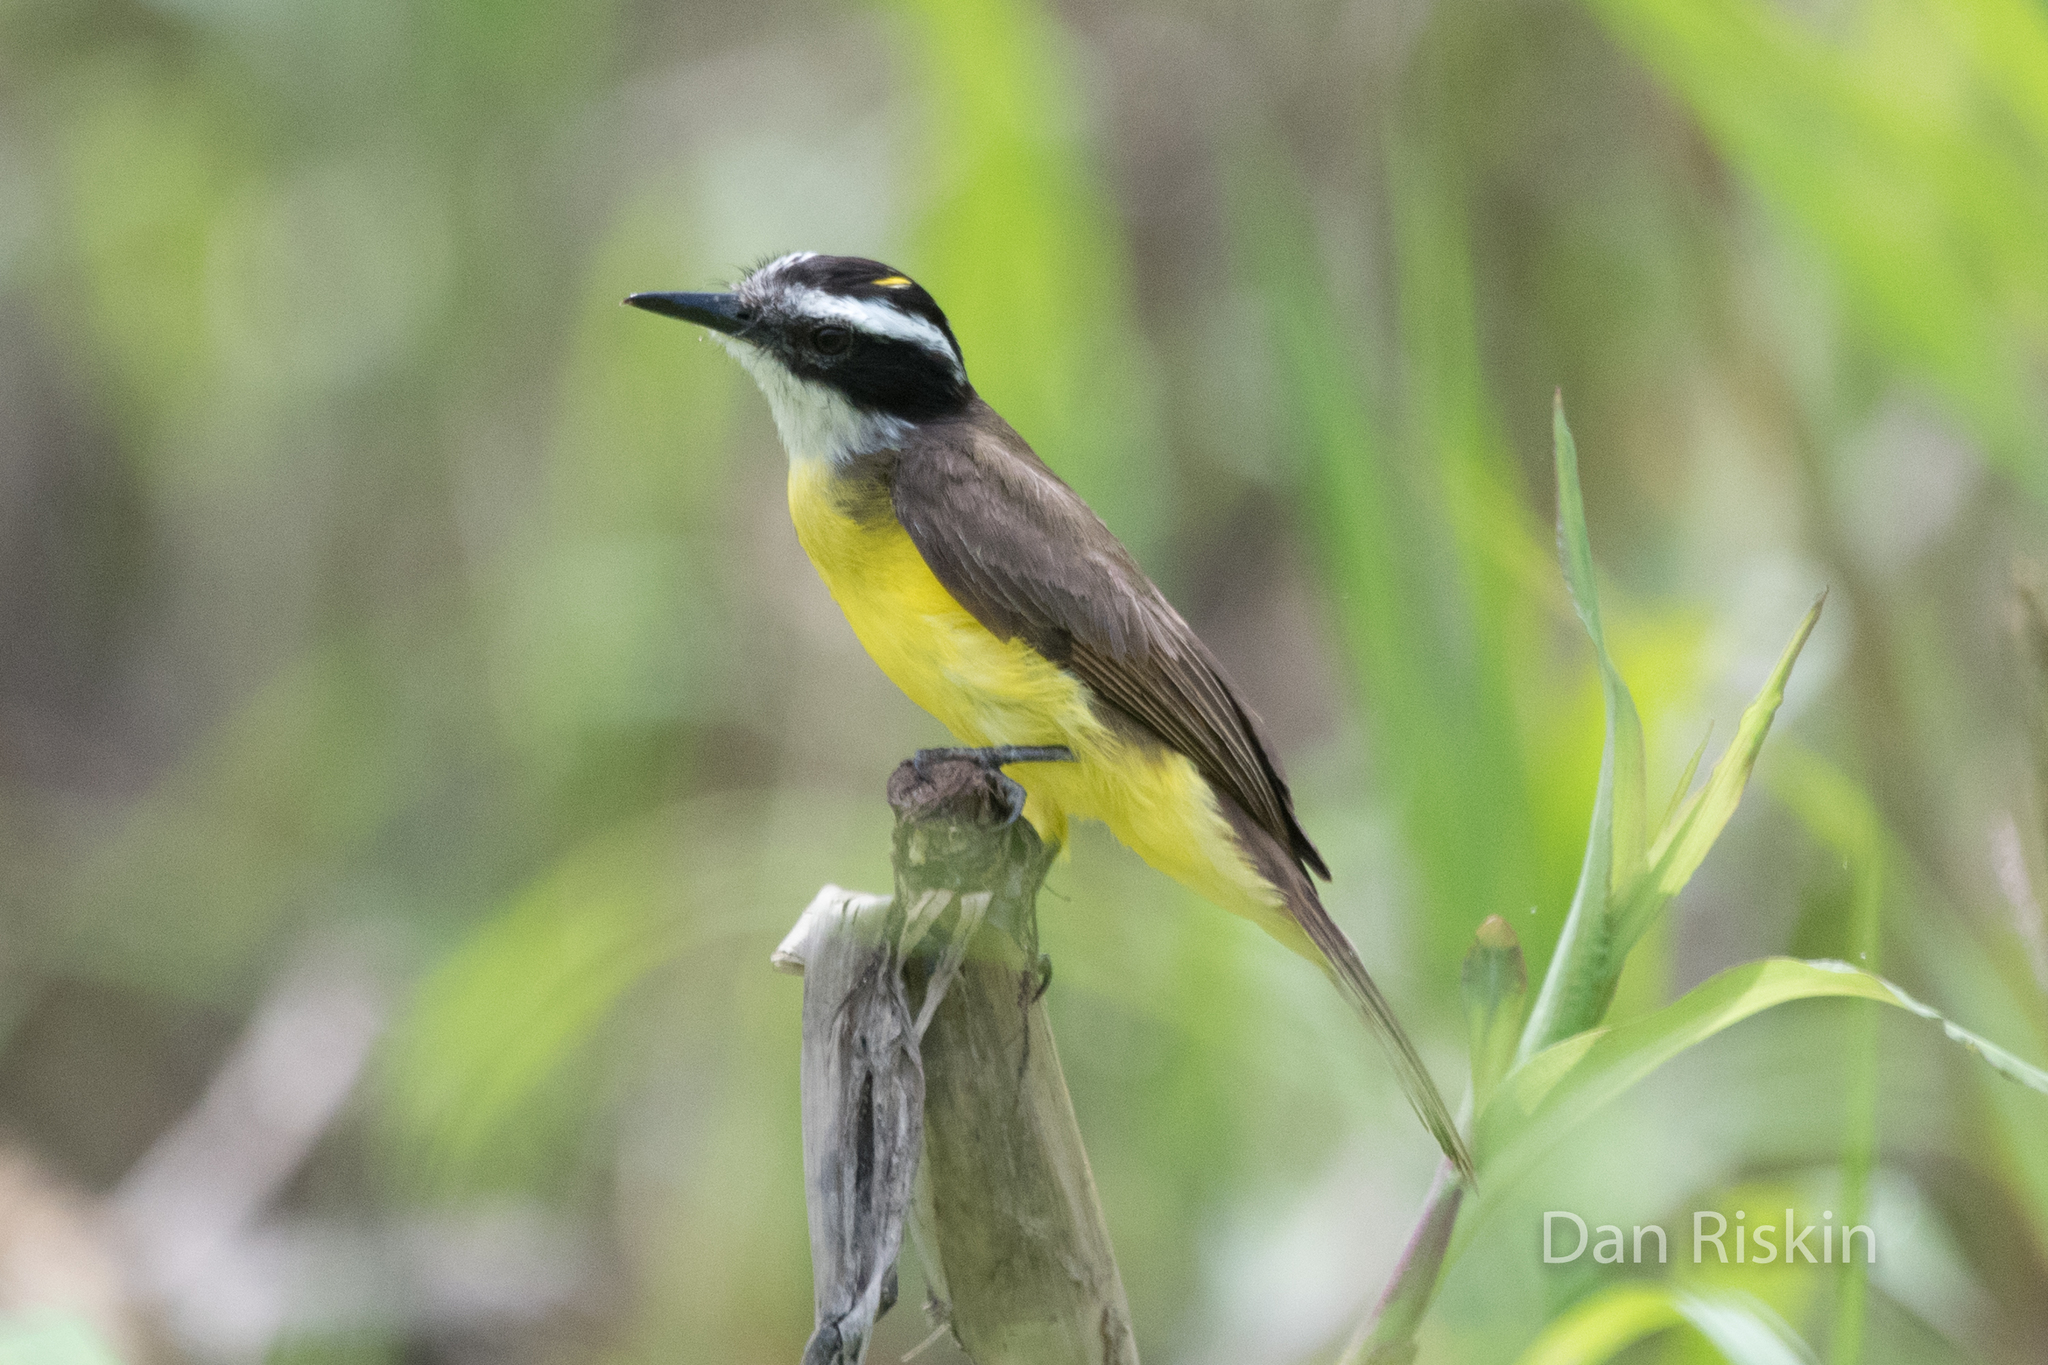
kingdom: Animalia
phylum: Chordata
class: Aves
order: Passeriformes
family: Tyrannidae
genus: Pitangus
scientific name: Pitangus lictor
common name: Lesser kiskadee
